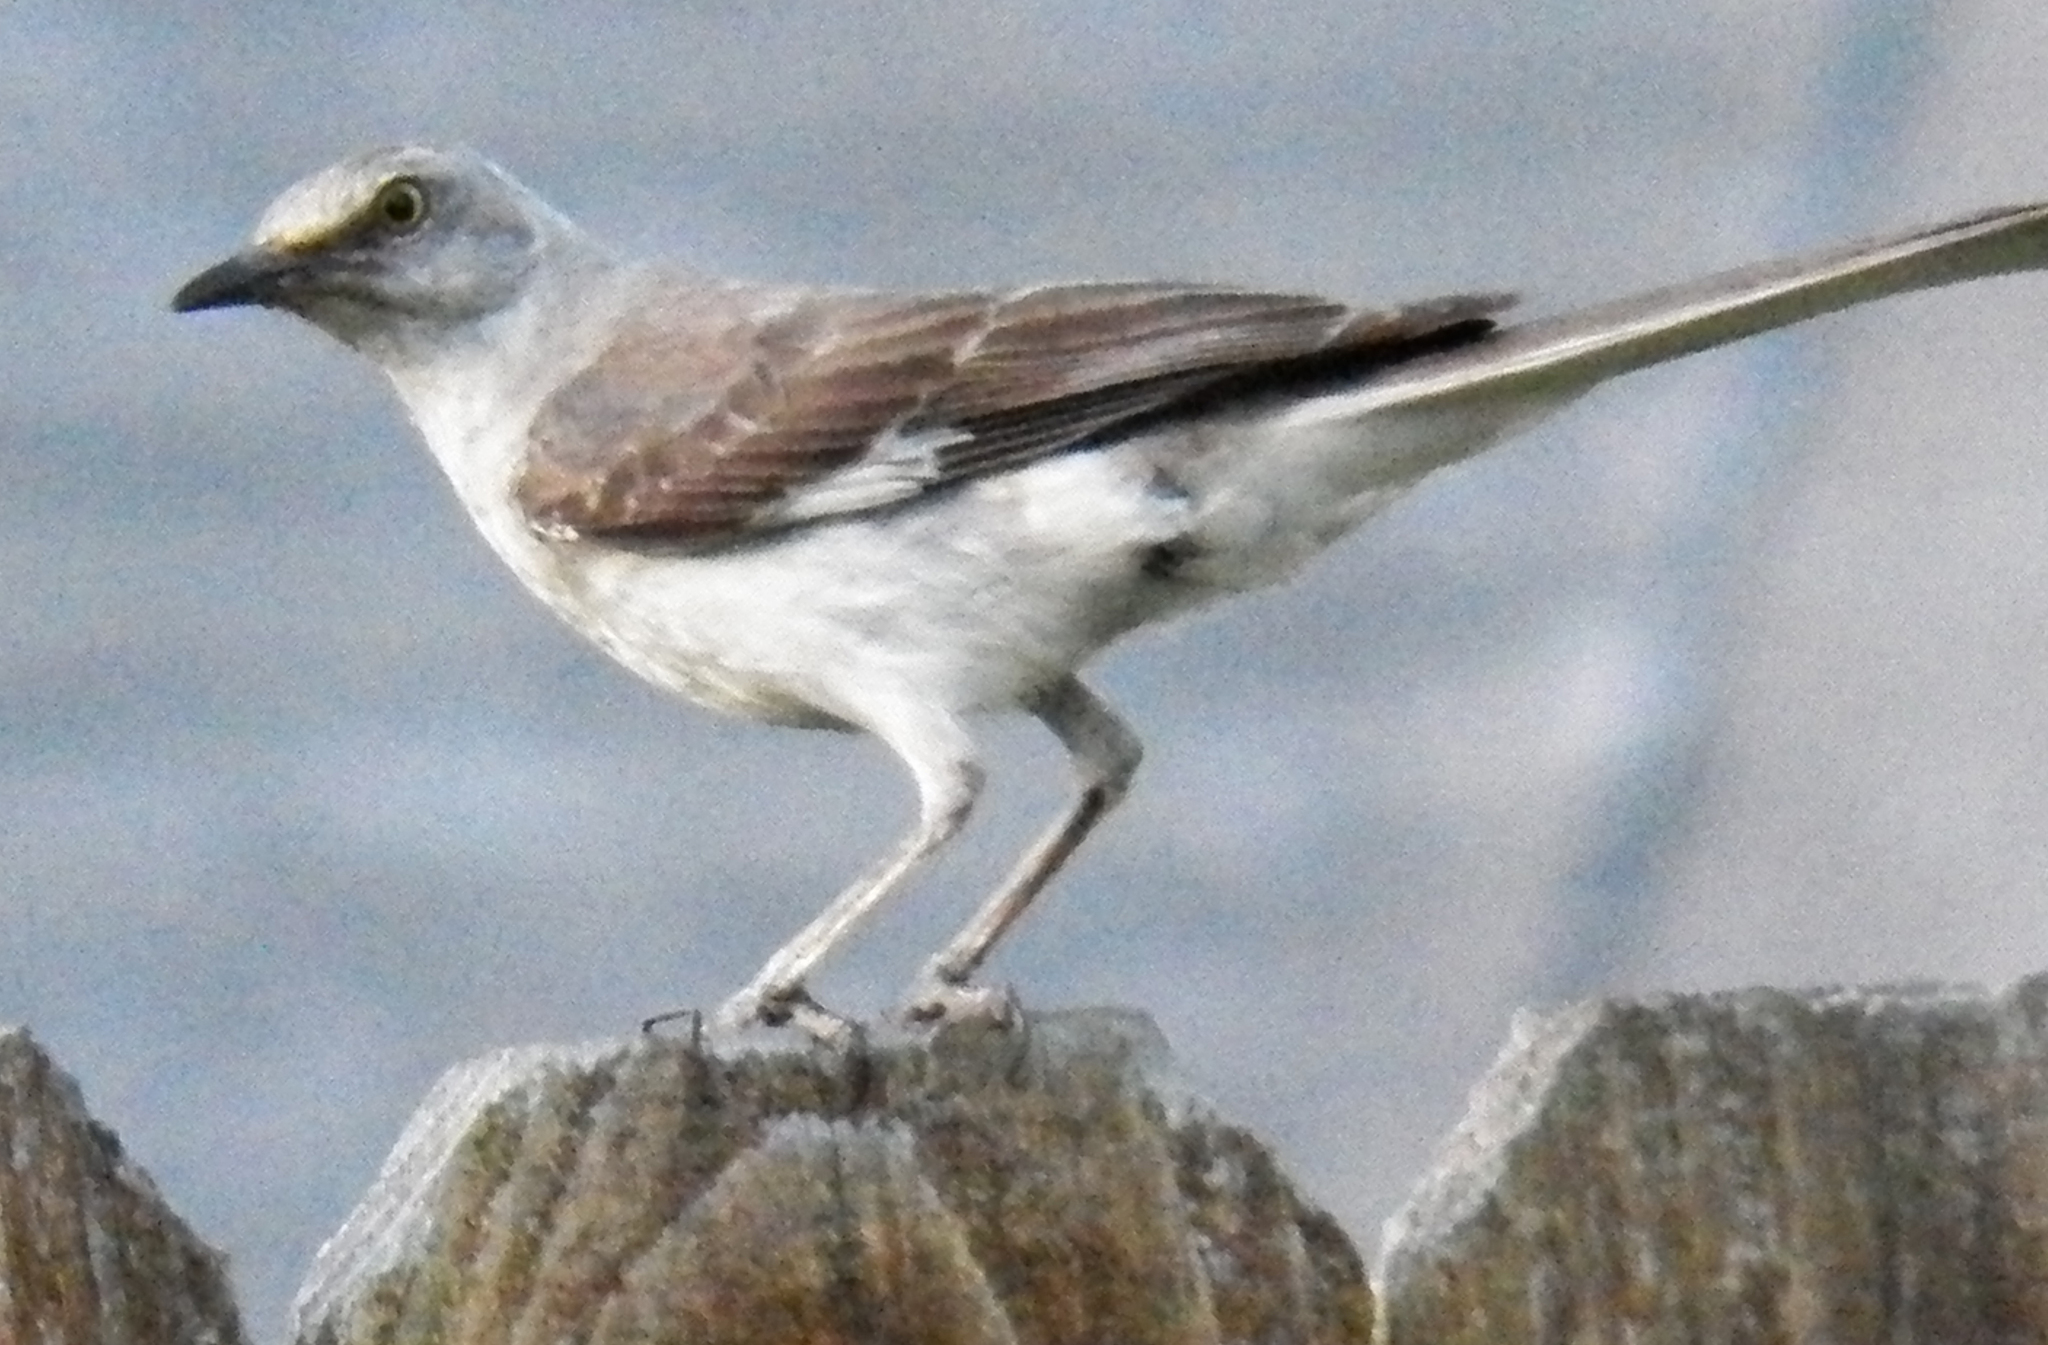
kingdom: Animalia
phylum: Chordata
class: Aves
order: Passeriformes
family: Mimidae
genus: Mimus
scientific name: Mimus polyglottos
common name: Northern mockingbird
